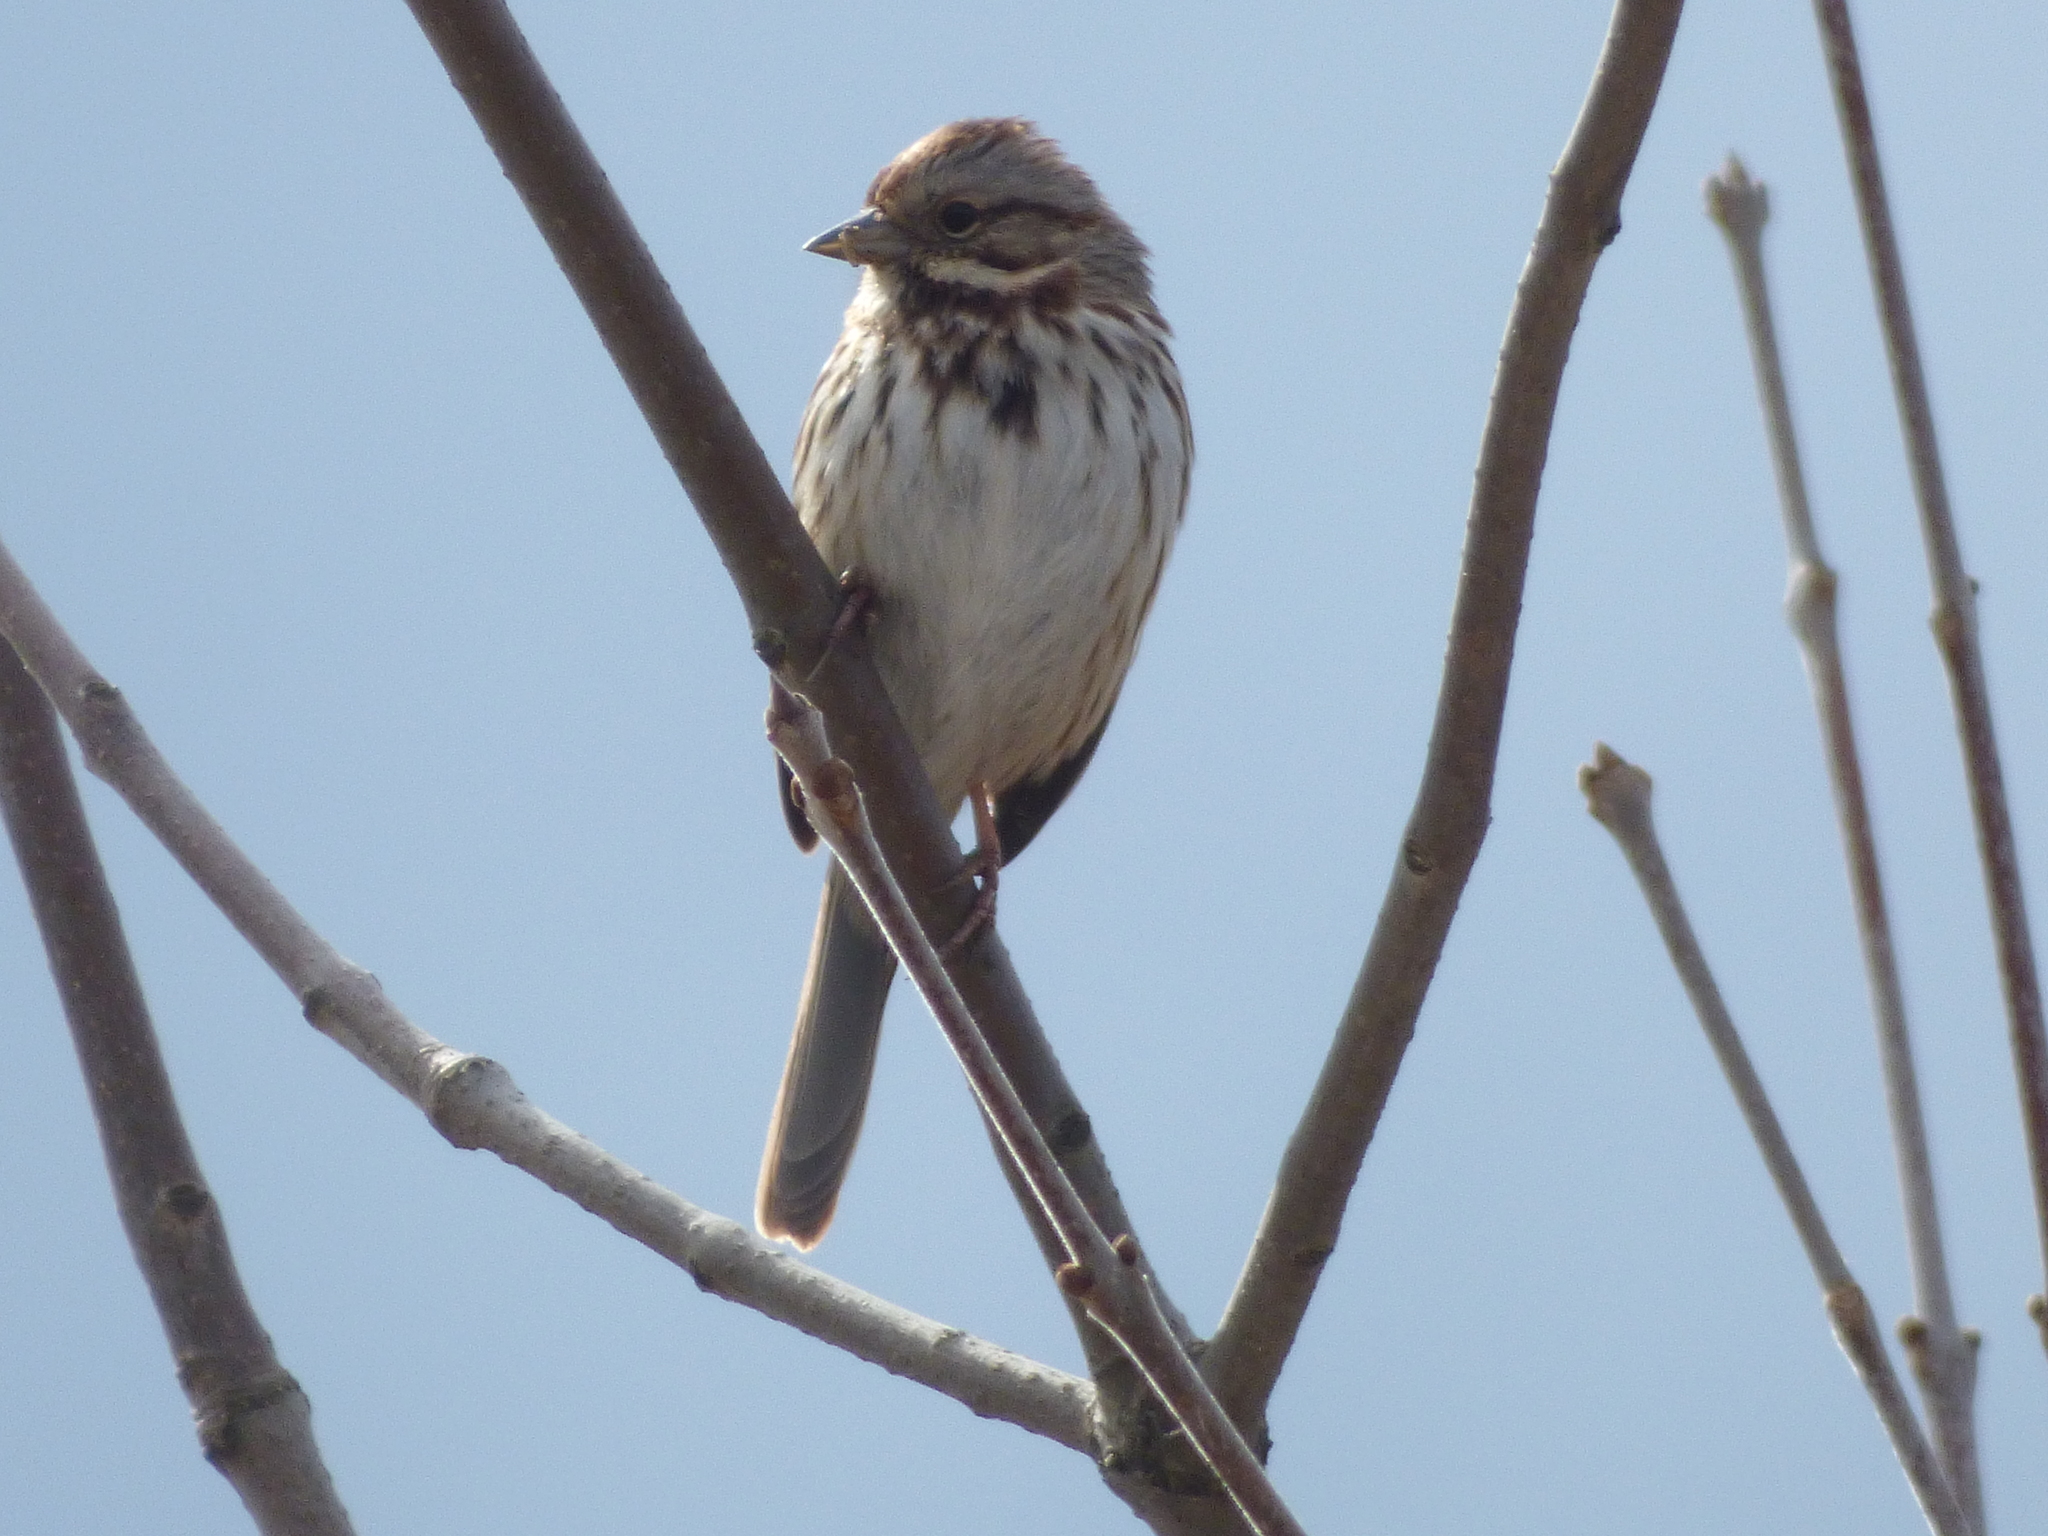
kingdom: Animalia
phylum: Chordata
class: Aves
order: Passeriformes
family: Passerellidae
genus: Melospiza
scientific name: Melospiza melodia
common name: Song sparrow
